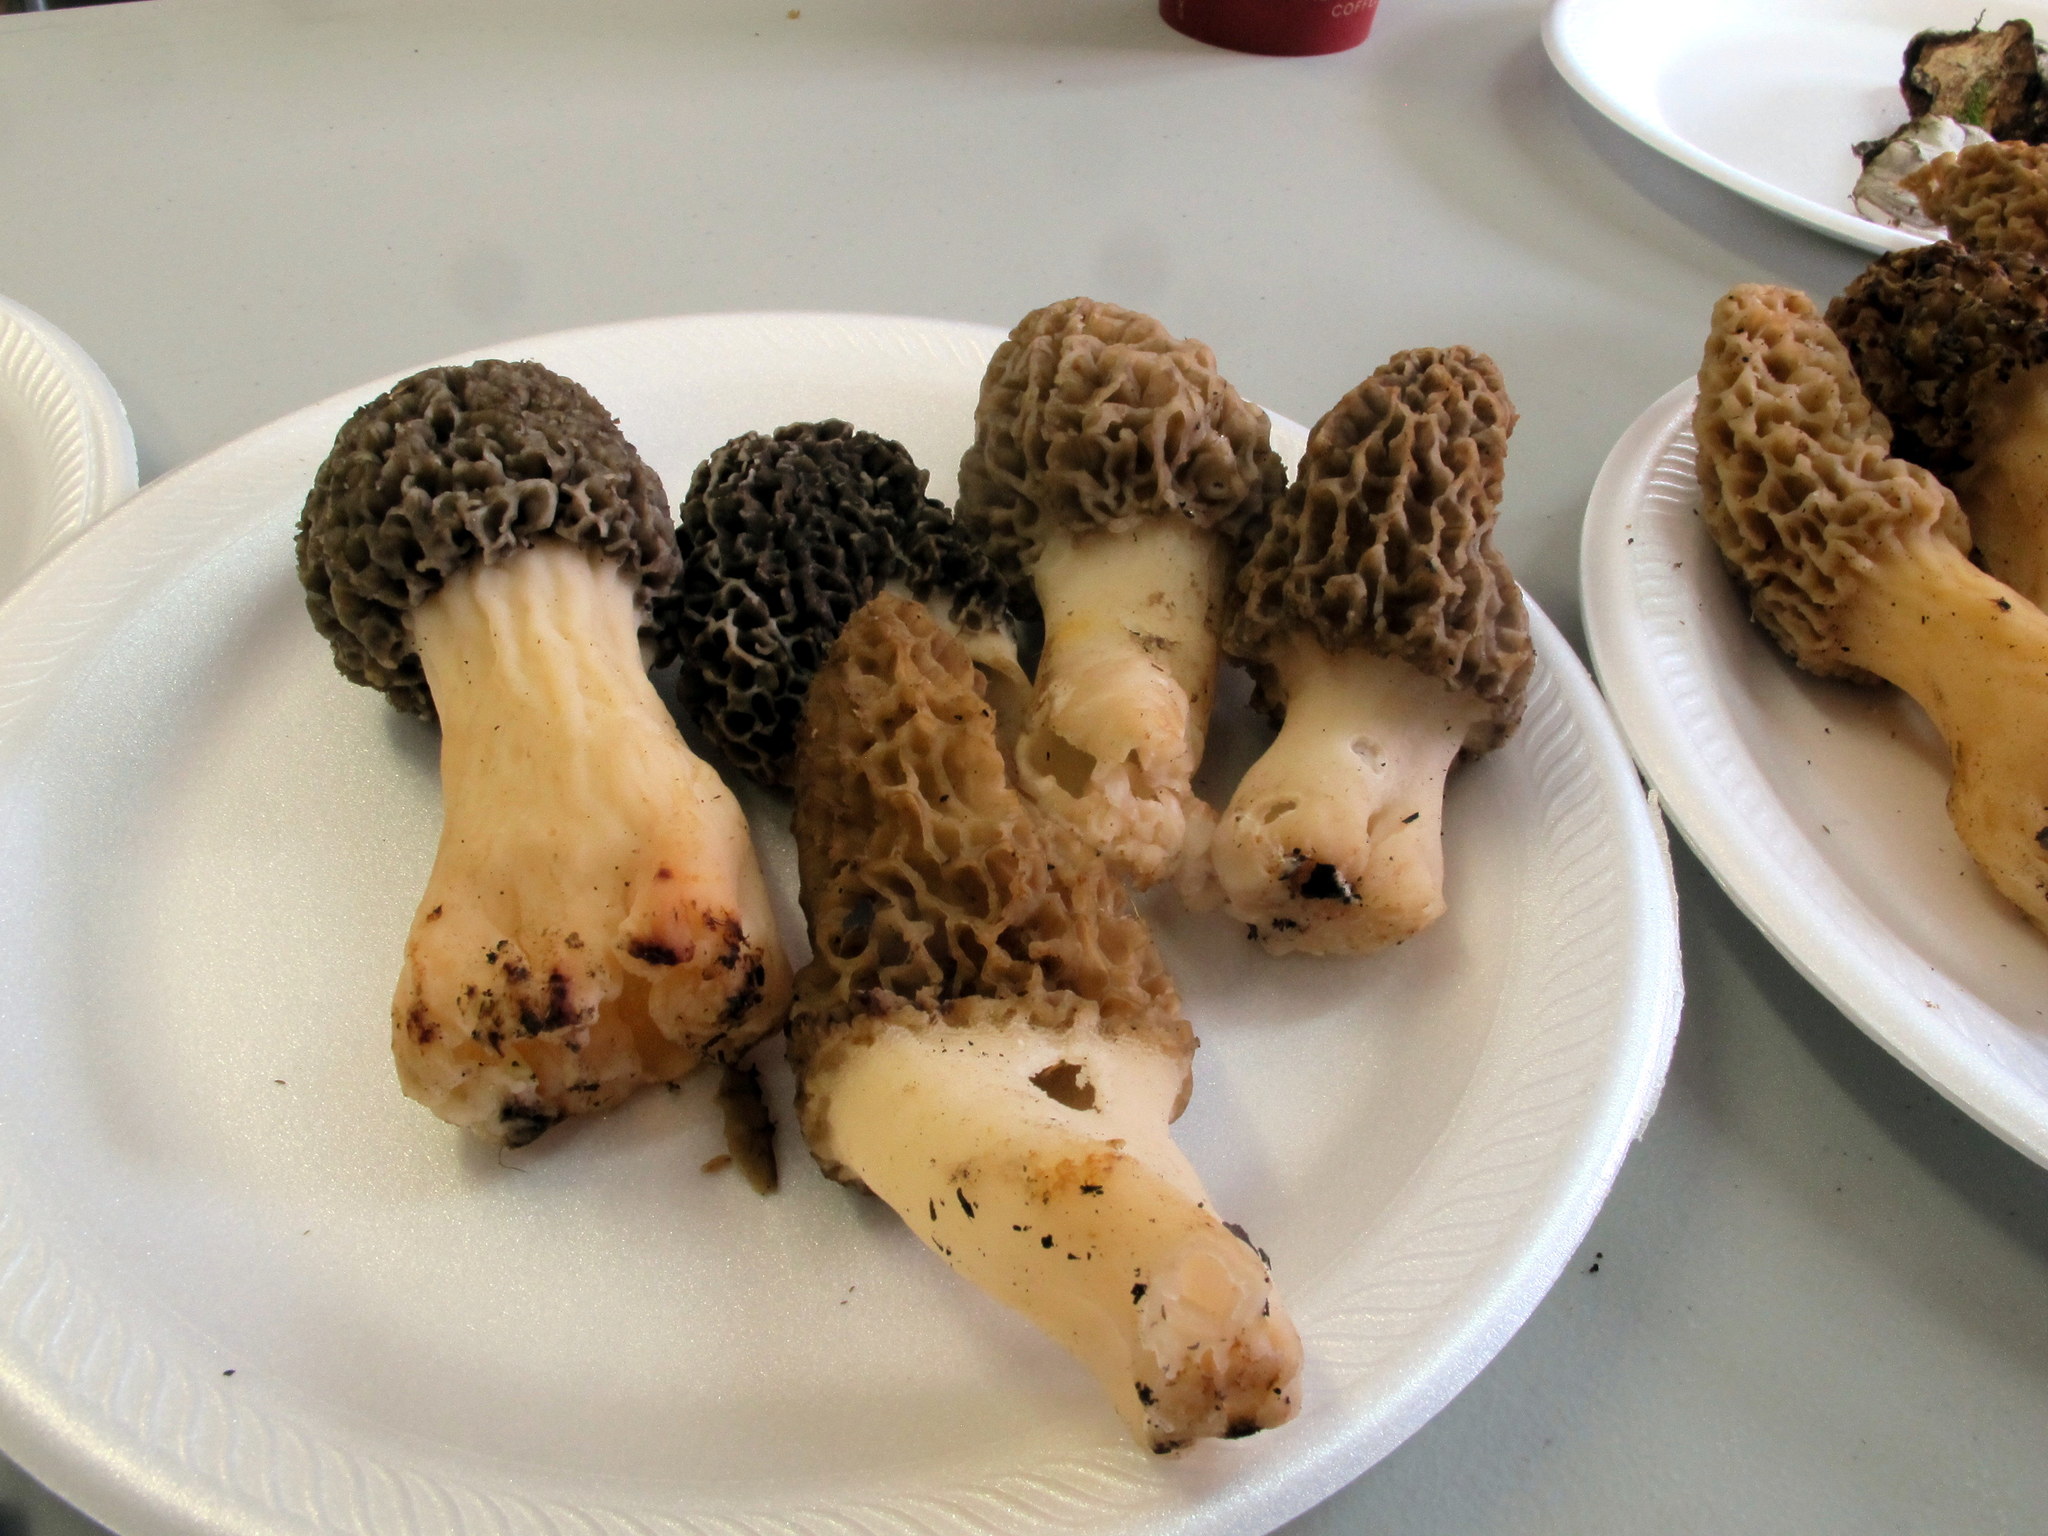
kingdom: Fungi
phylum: Ascomycota
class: Pezizomycetes
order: Pezizales
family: Morchellaceae
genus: Morchella
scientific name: Morchella americana
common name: White morel
